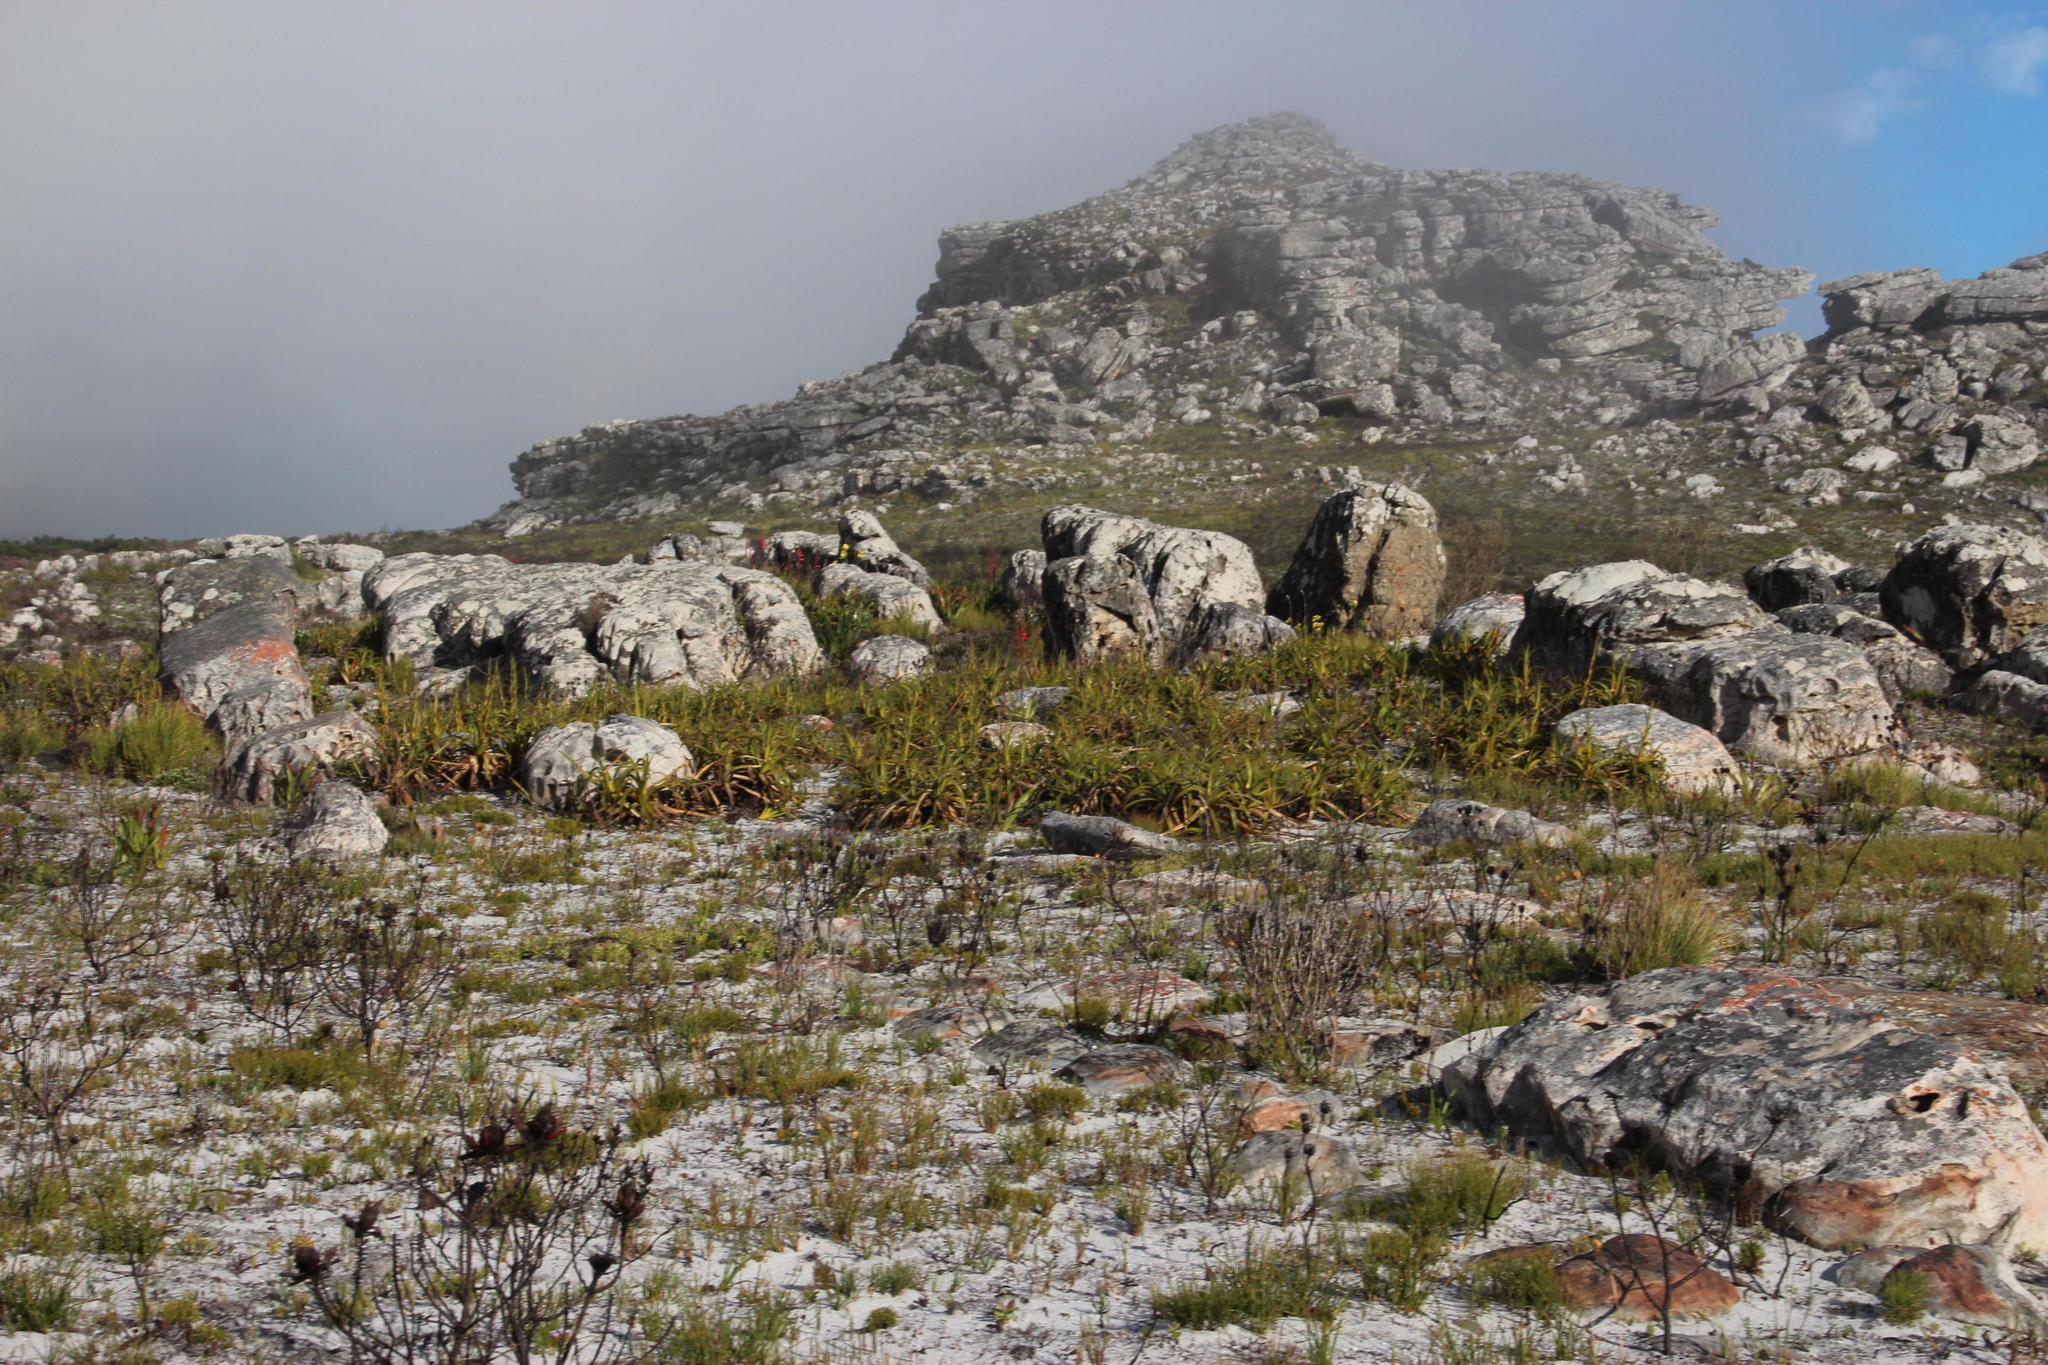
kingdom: Plantae
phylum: Tracheophyta
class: Liliopsida
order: Poales
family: Cyperaceae
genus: Tetraria
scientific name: Tetraria thermalis
